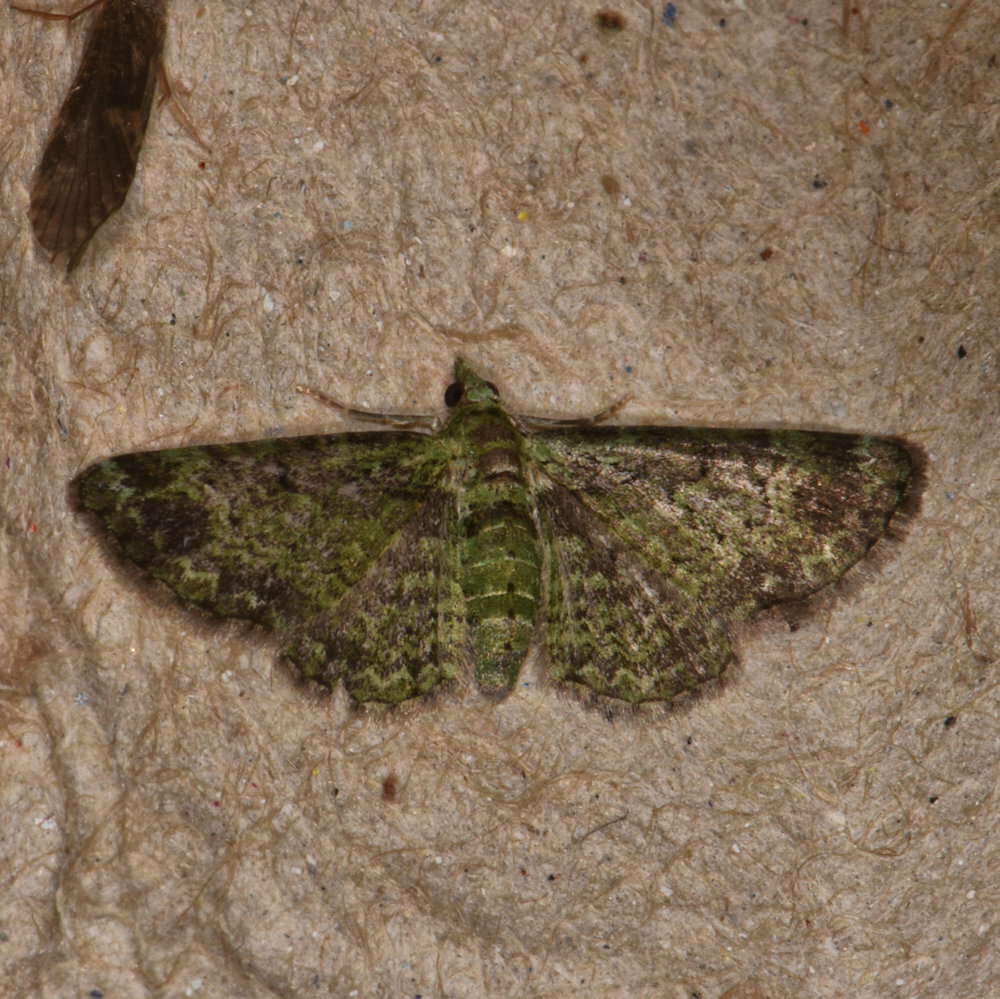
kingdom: Animalia
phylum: Arthropoda
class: Insecta
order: Lepidoptera
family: Geometridae
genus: Pasiphila
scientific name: Pasiphila rectangulata
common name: Green pug
